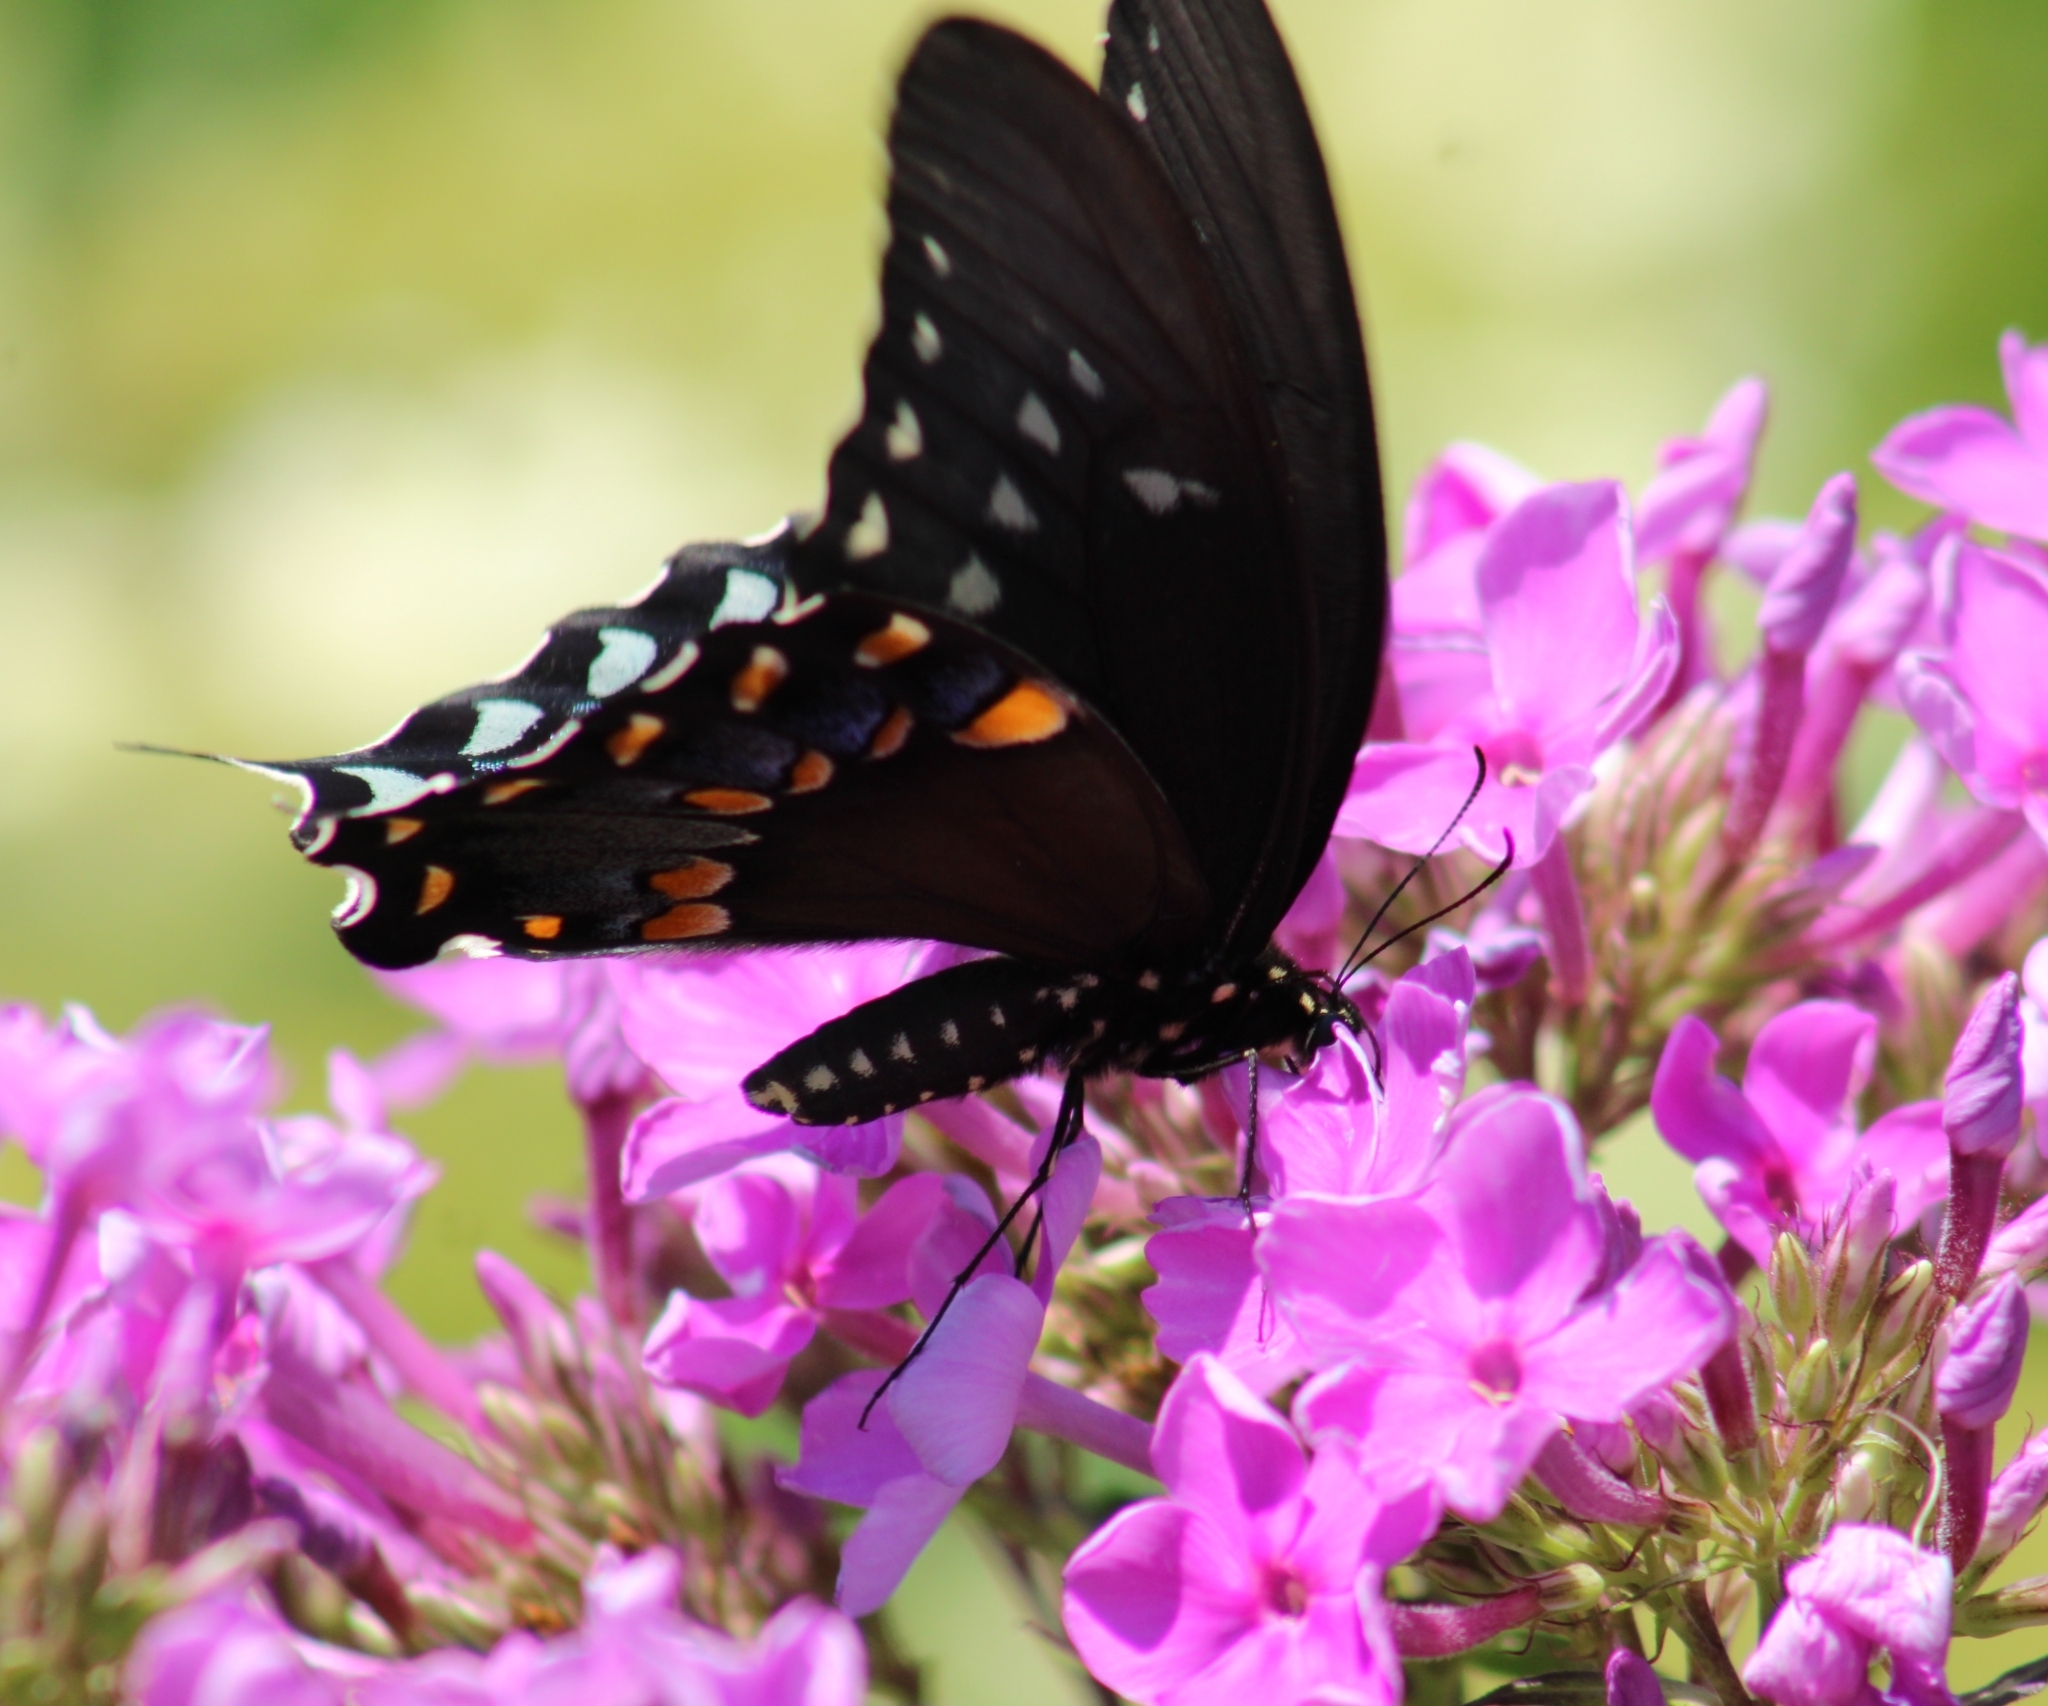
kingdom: Animalia
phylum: Arthropoda
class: Insecta
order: Lepidoptera
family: Papilionidae
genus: Papilio
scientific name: Papilio troilus
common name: Spicebush swallowtail
